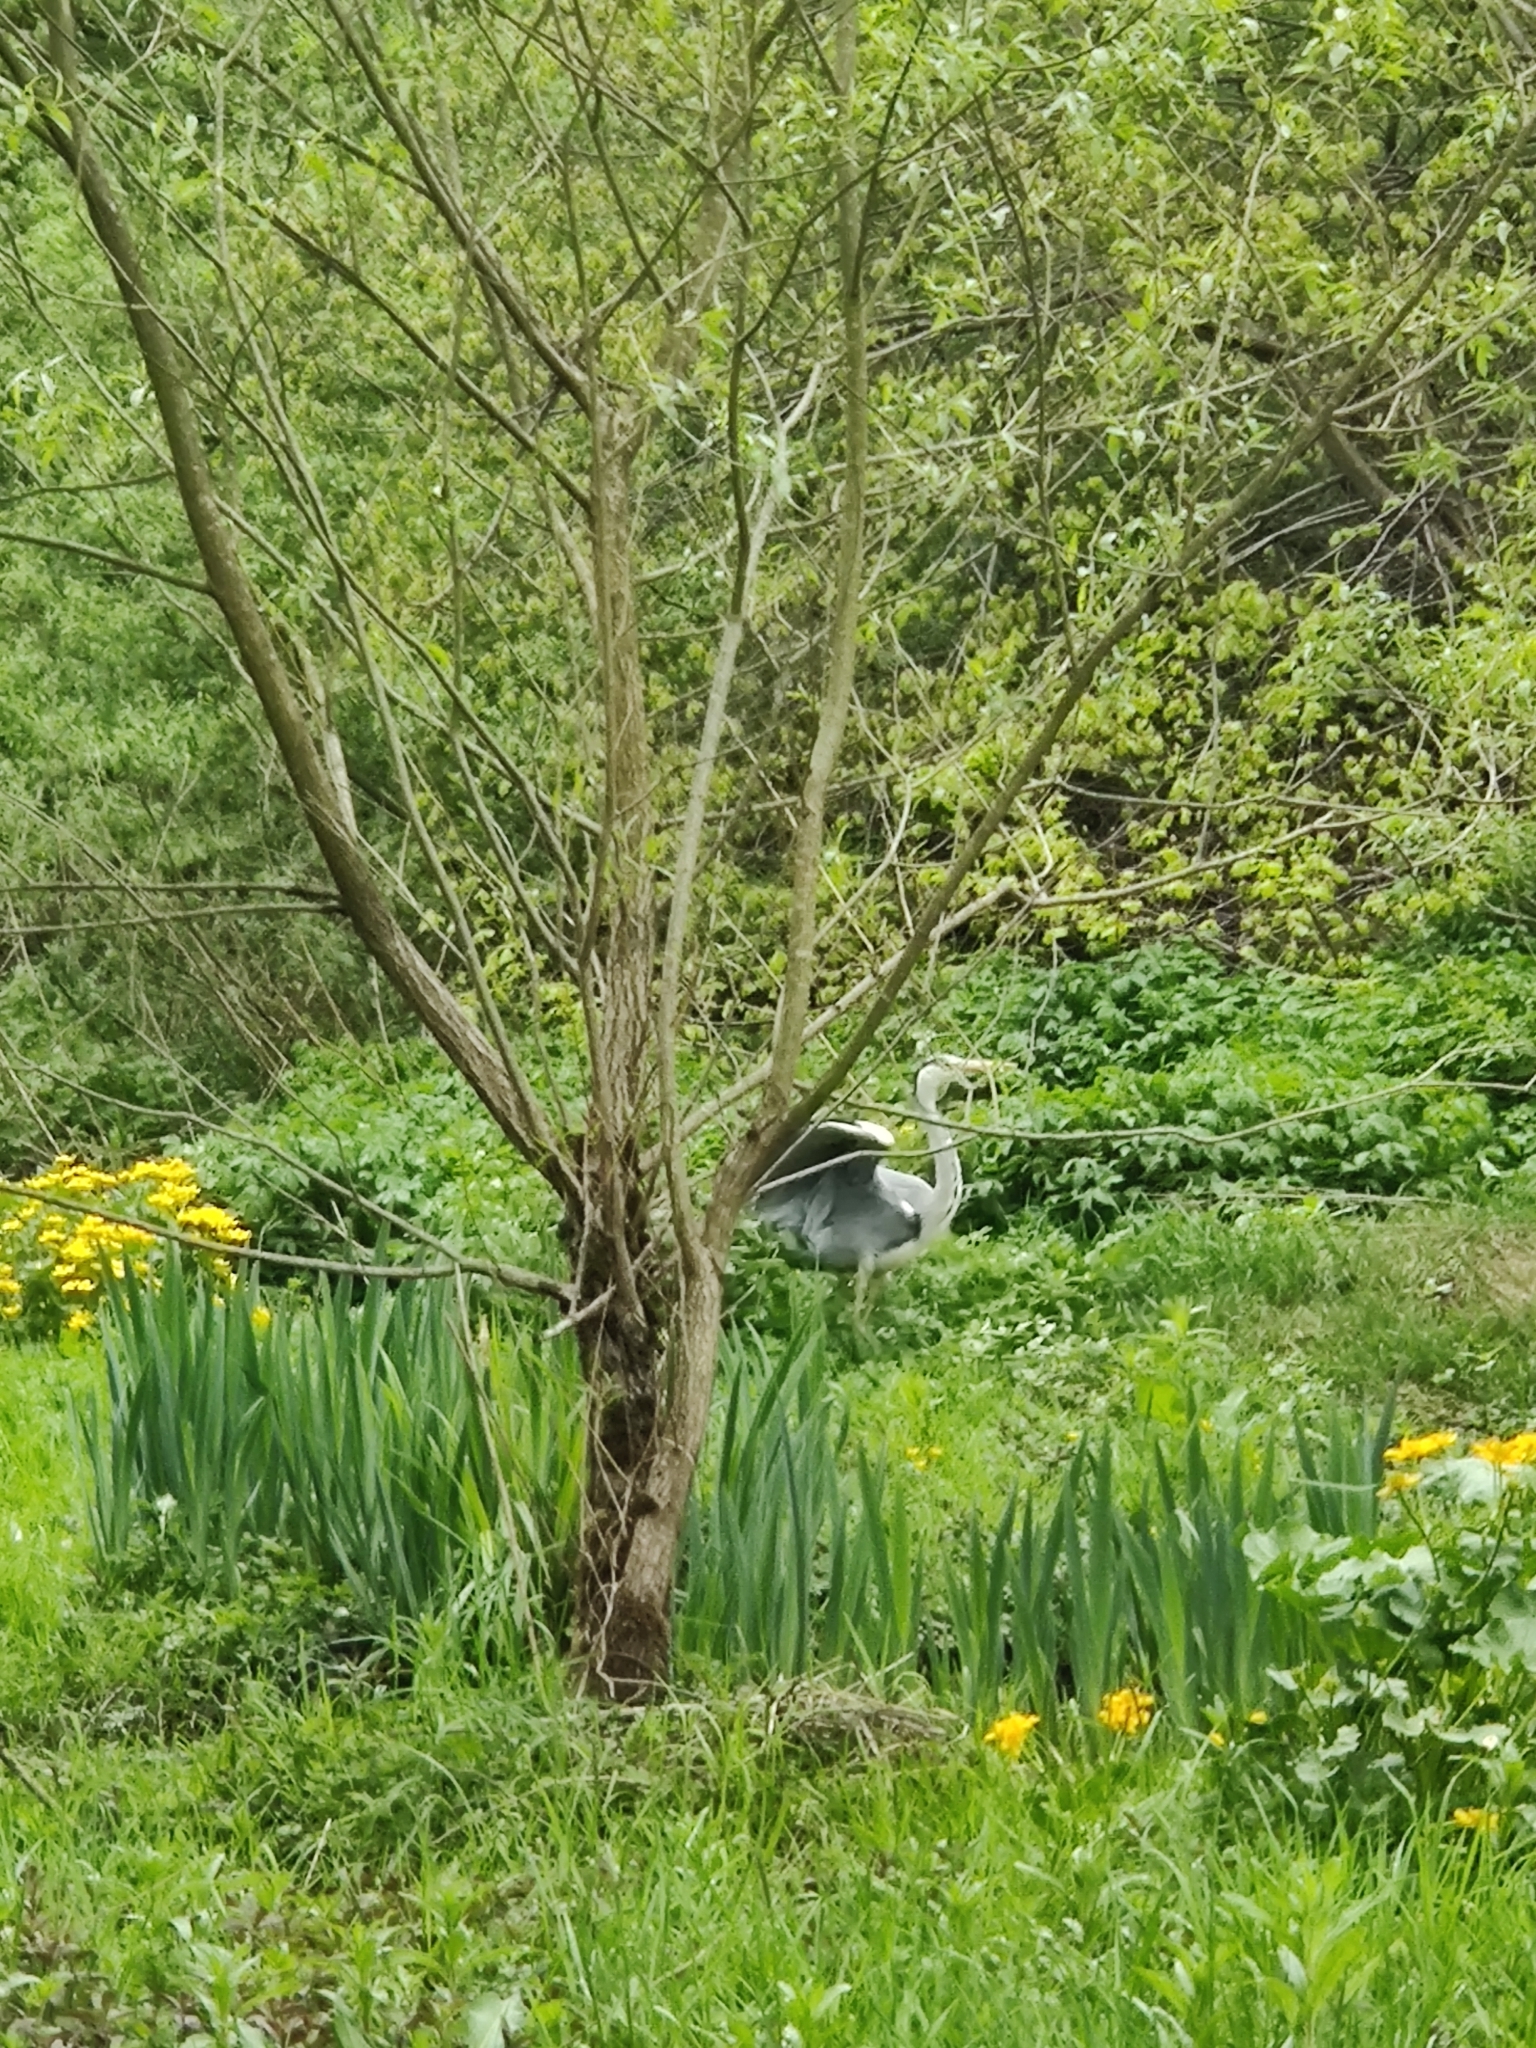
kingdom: Animalia
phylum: Chordata
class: Aves
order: Pelecaniformes
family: Ardeidae
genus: Ardea
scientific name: Ardea cinerea
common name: Grey heron
